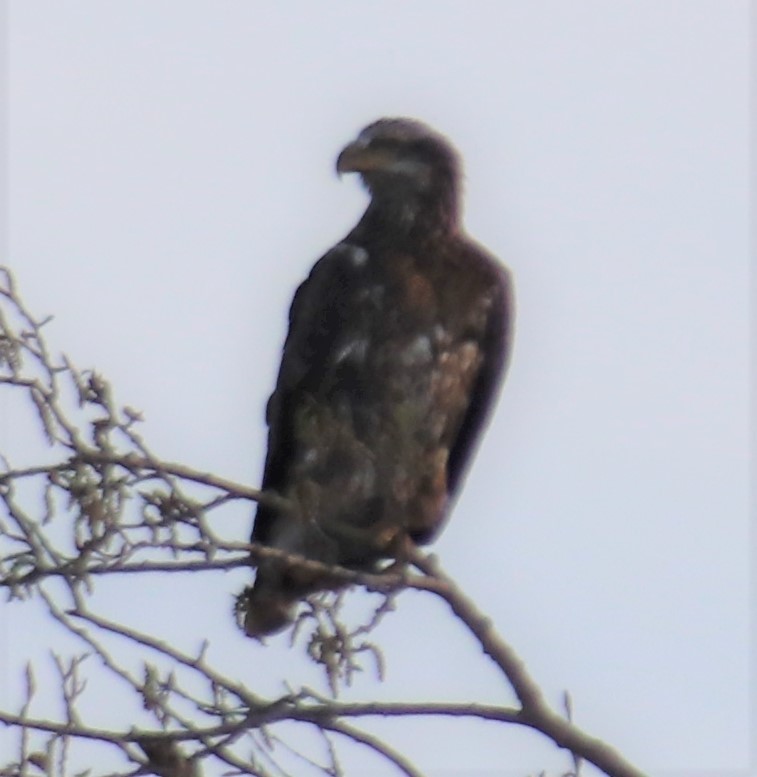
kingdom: Animalia
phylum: Chordata
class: Aves
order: Accipitriformes
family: Accipitridae
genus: Haliaeetus
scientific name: Haliaeetus leucocephalus
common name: Bald eagle
